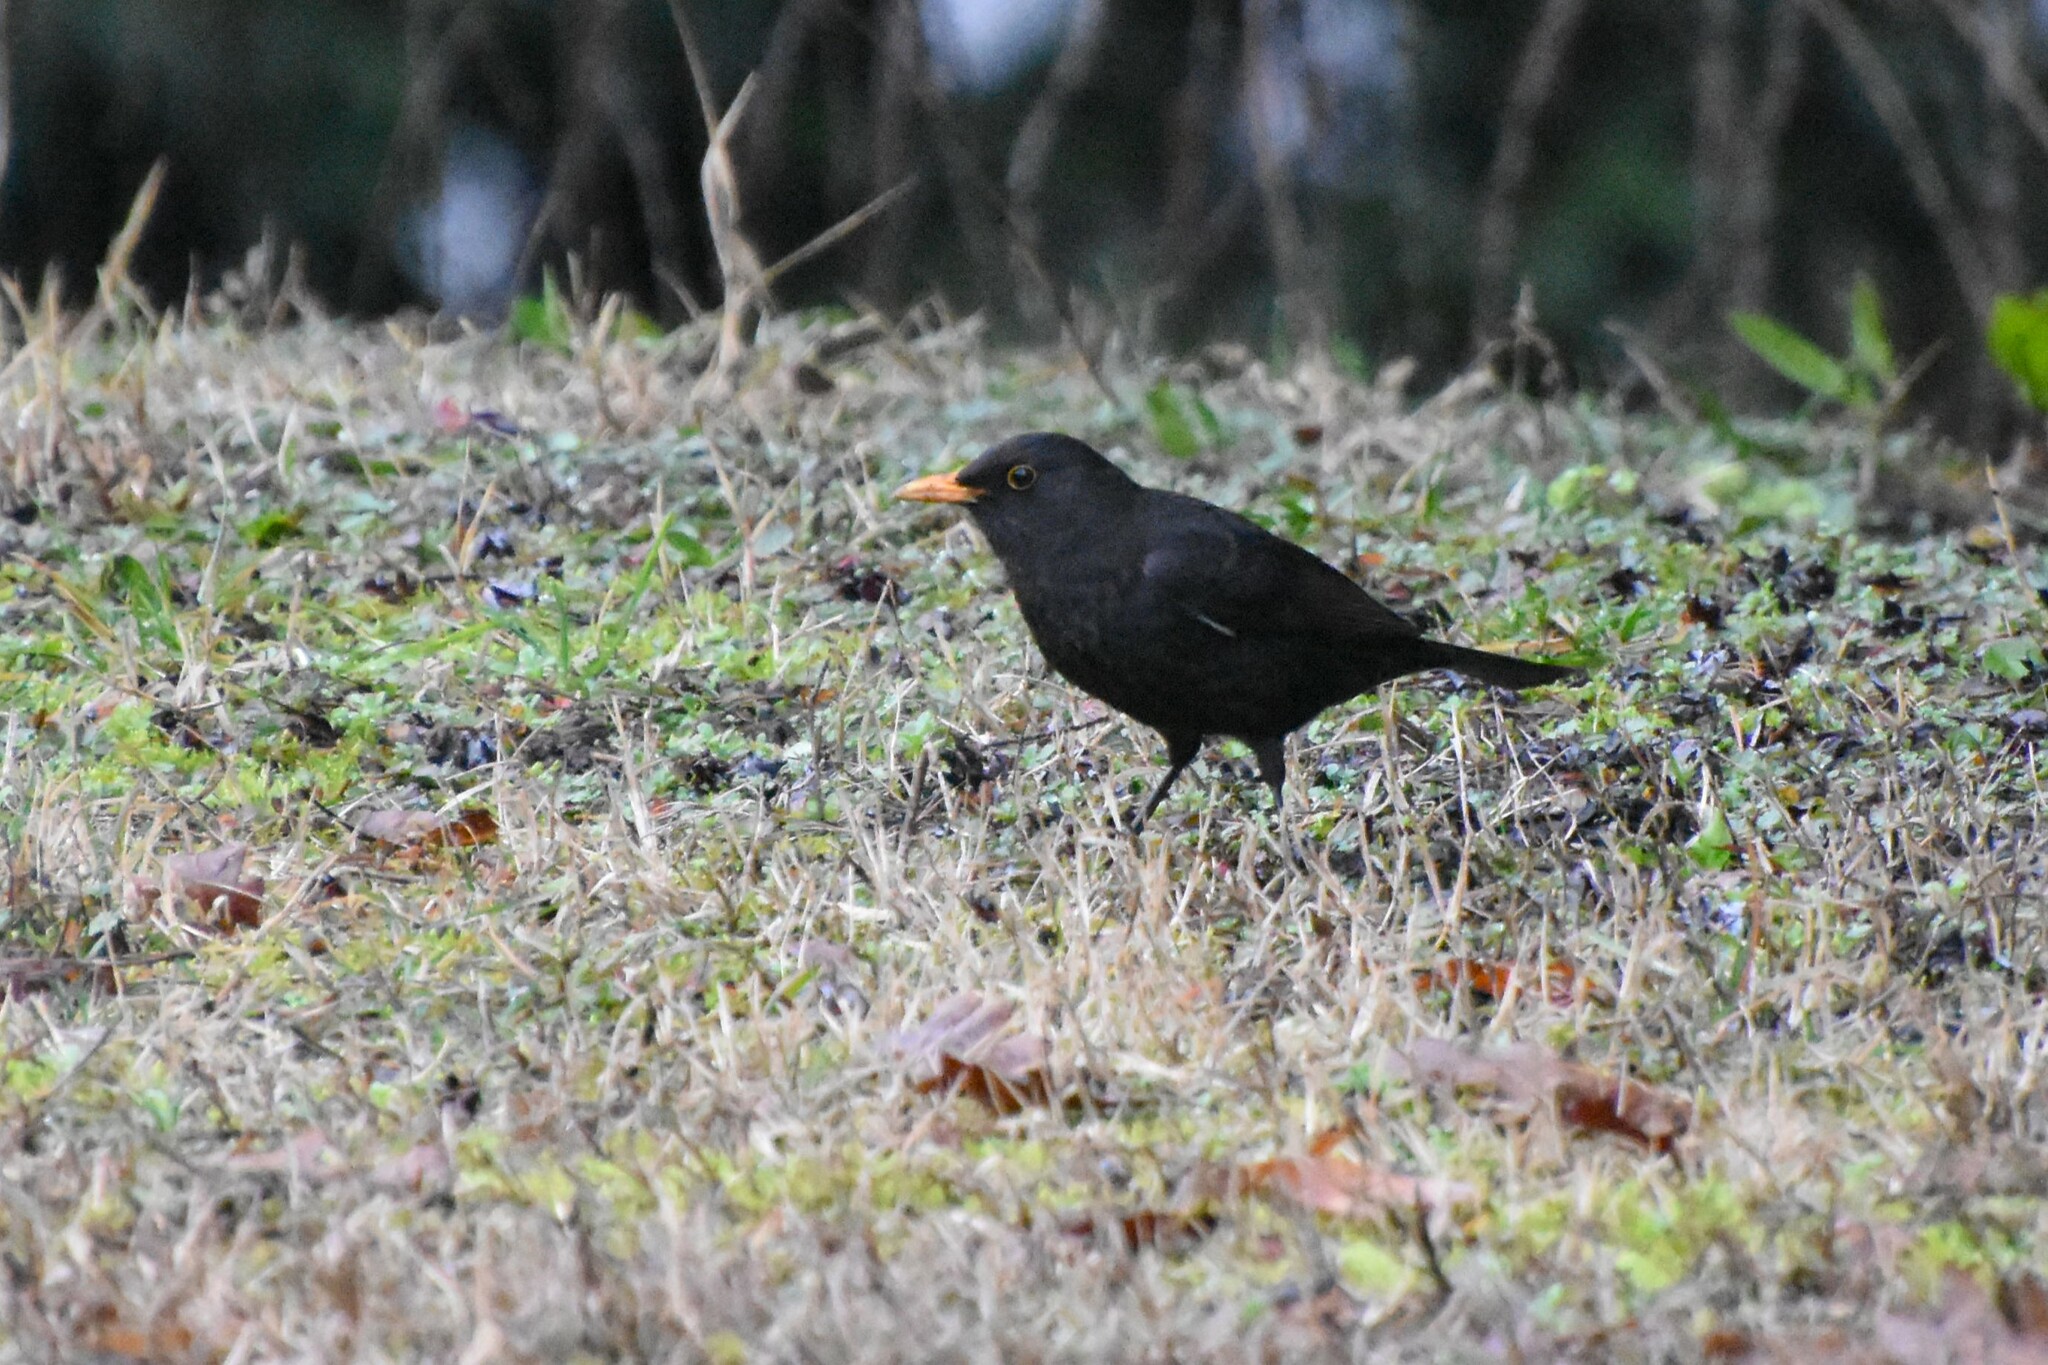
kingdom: Animalia
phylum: Chordata
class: Aves
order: Passeriformes
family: Turdidae
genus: Turdus
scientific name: Turdus merula
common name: Common blackbird
